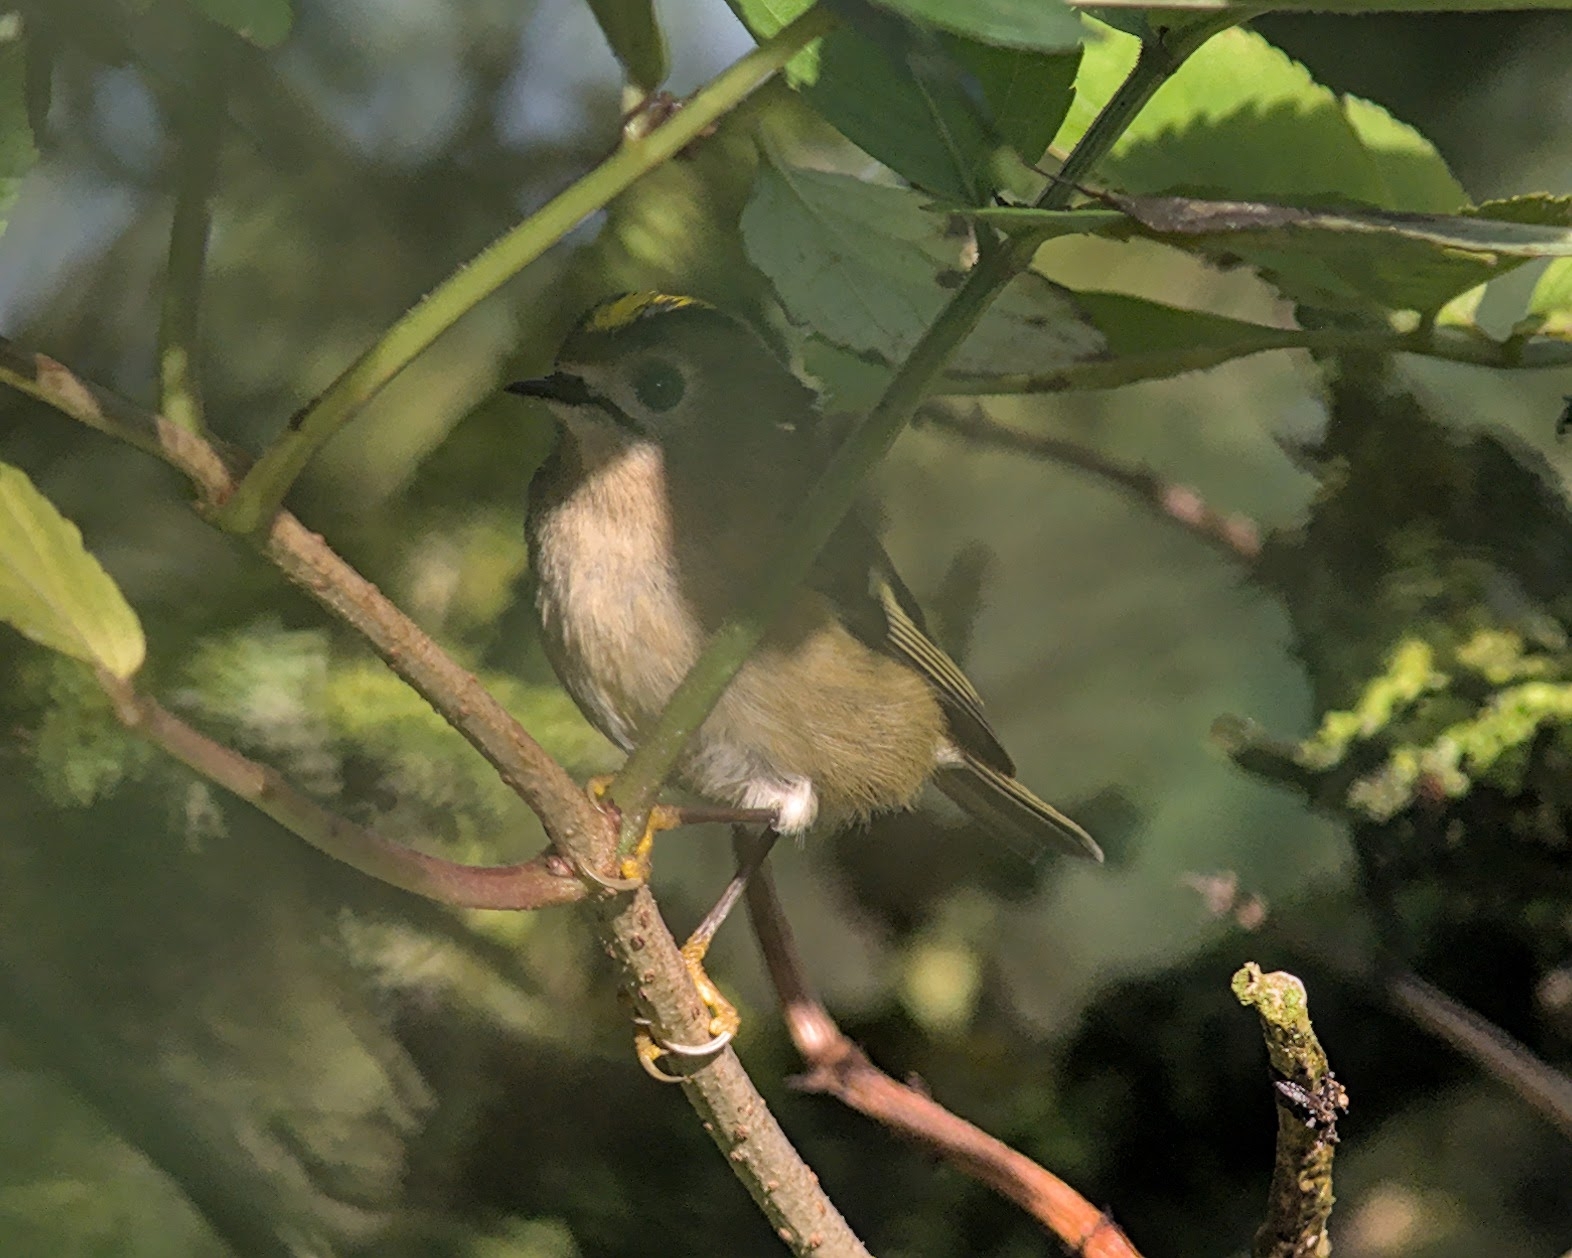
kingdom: Animalia
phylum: Chordata
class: Aves
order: Passeriformes
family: Regulidae
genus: Regulus
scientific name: Regulus regulus
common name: Goldcrest
